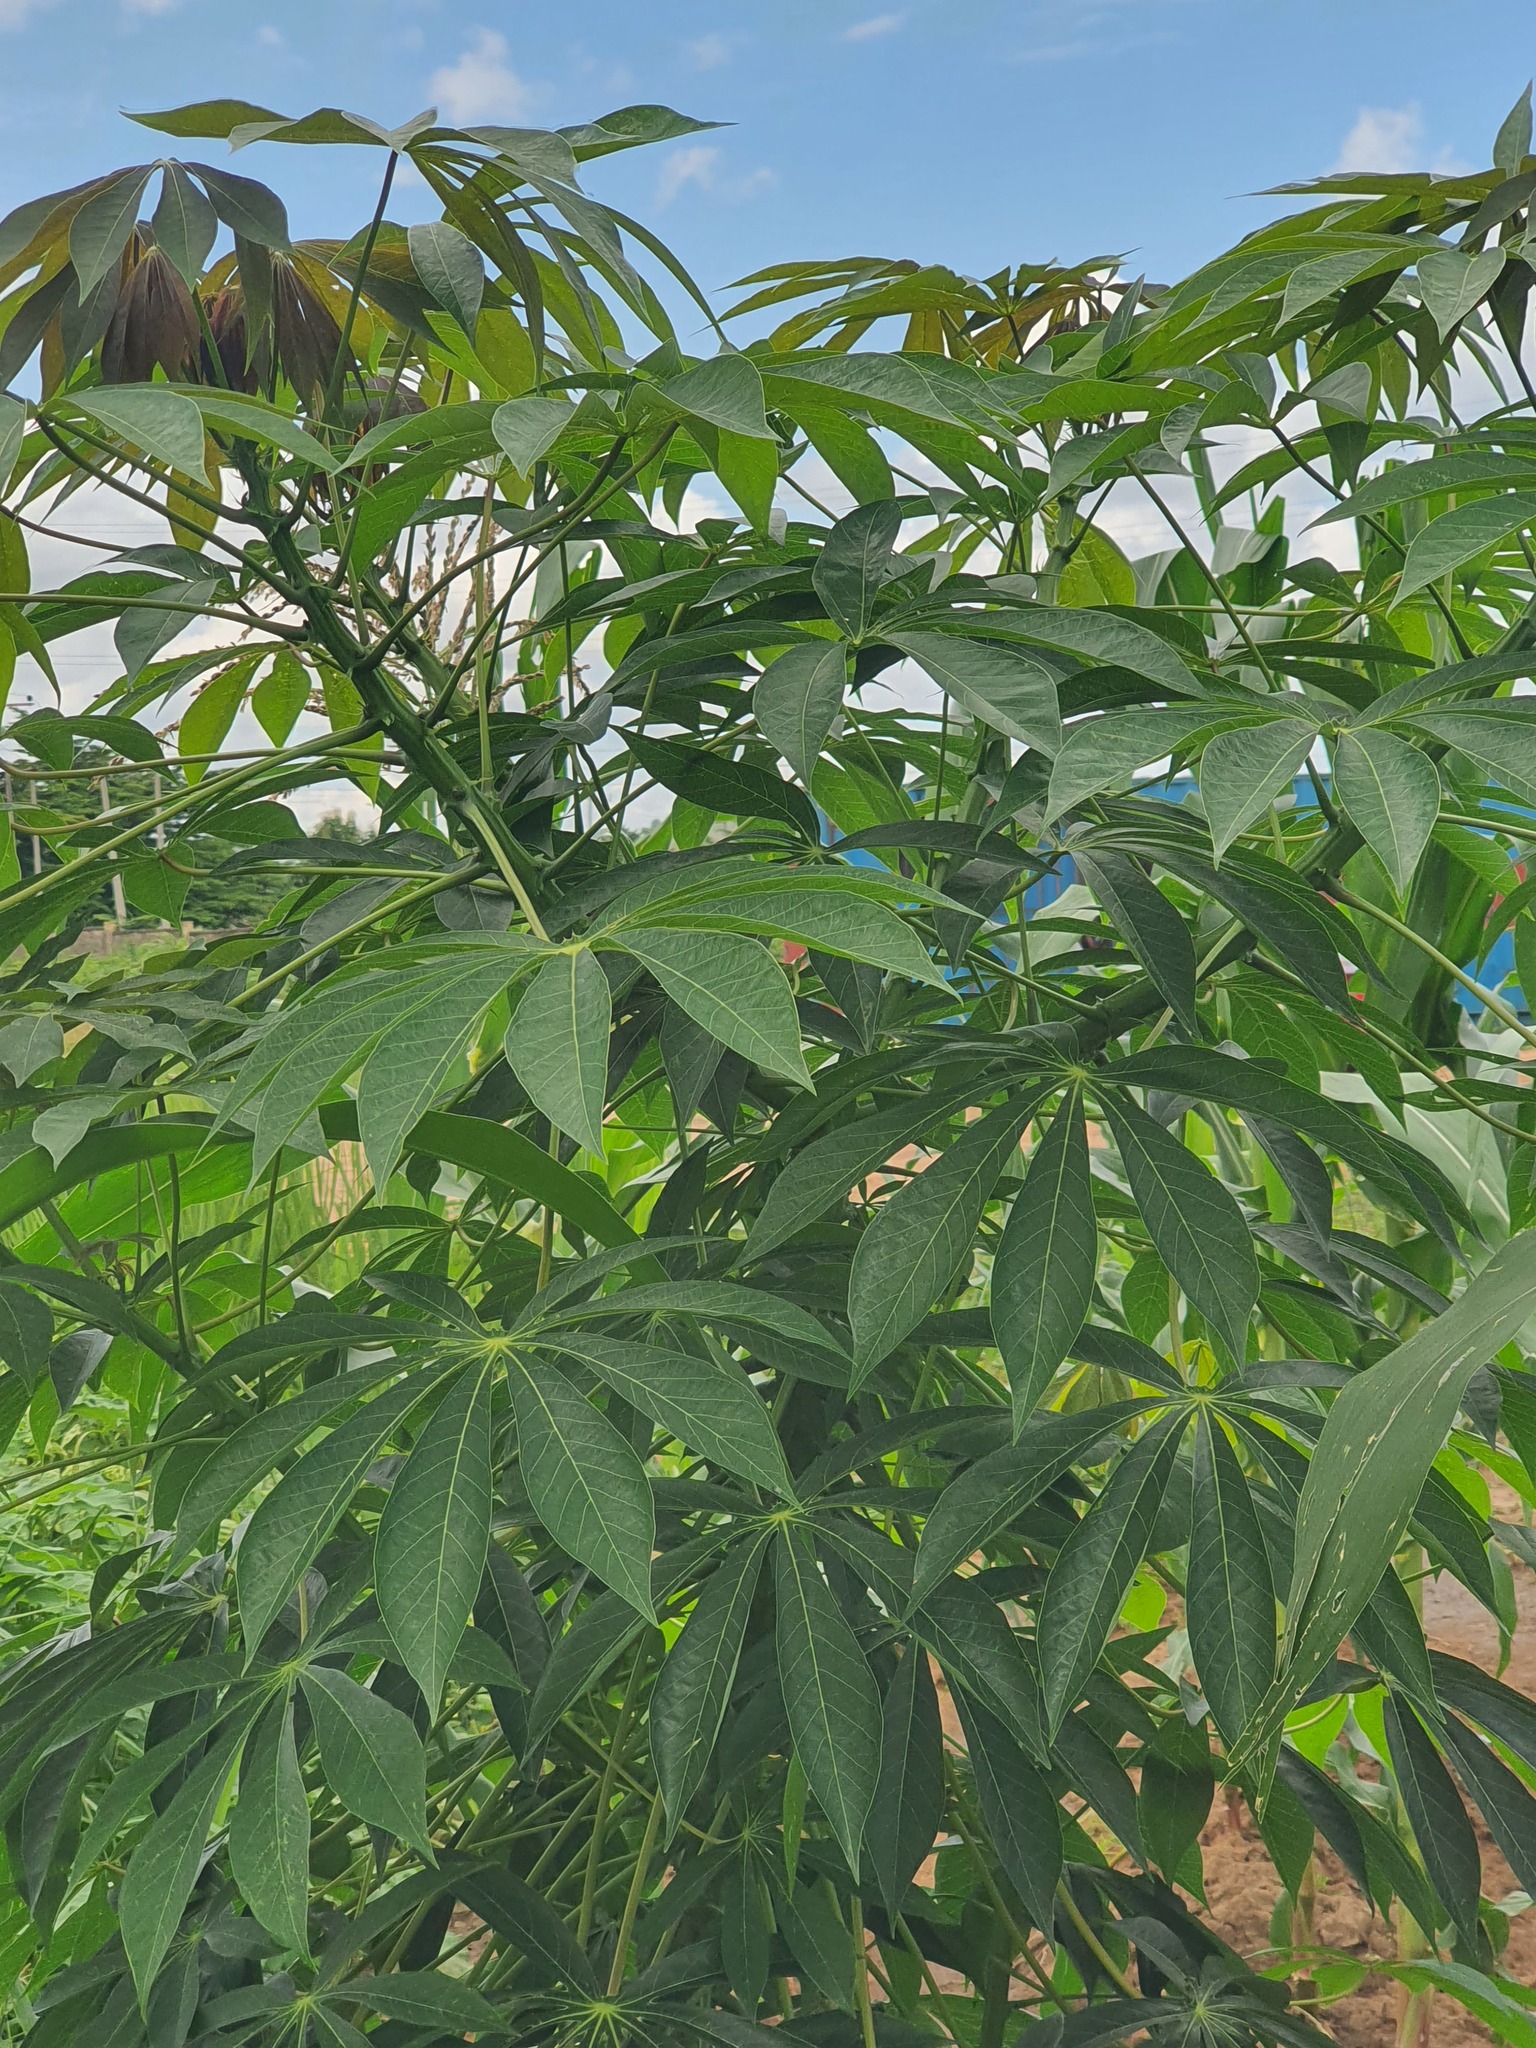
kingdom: Plantae
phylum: Tracheophyta
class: Magnoliopsida
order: Malpighiales
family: Euphorbiaceae
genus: Manihot
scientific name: Manihot esculenta
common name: Cassava
